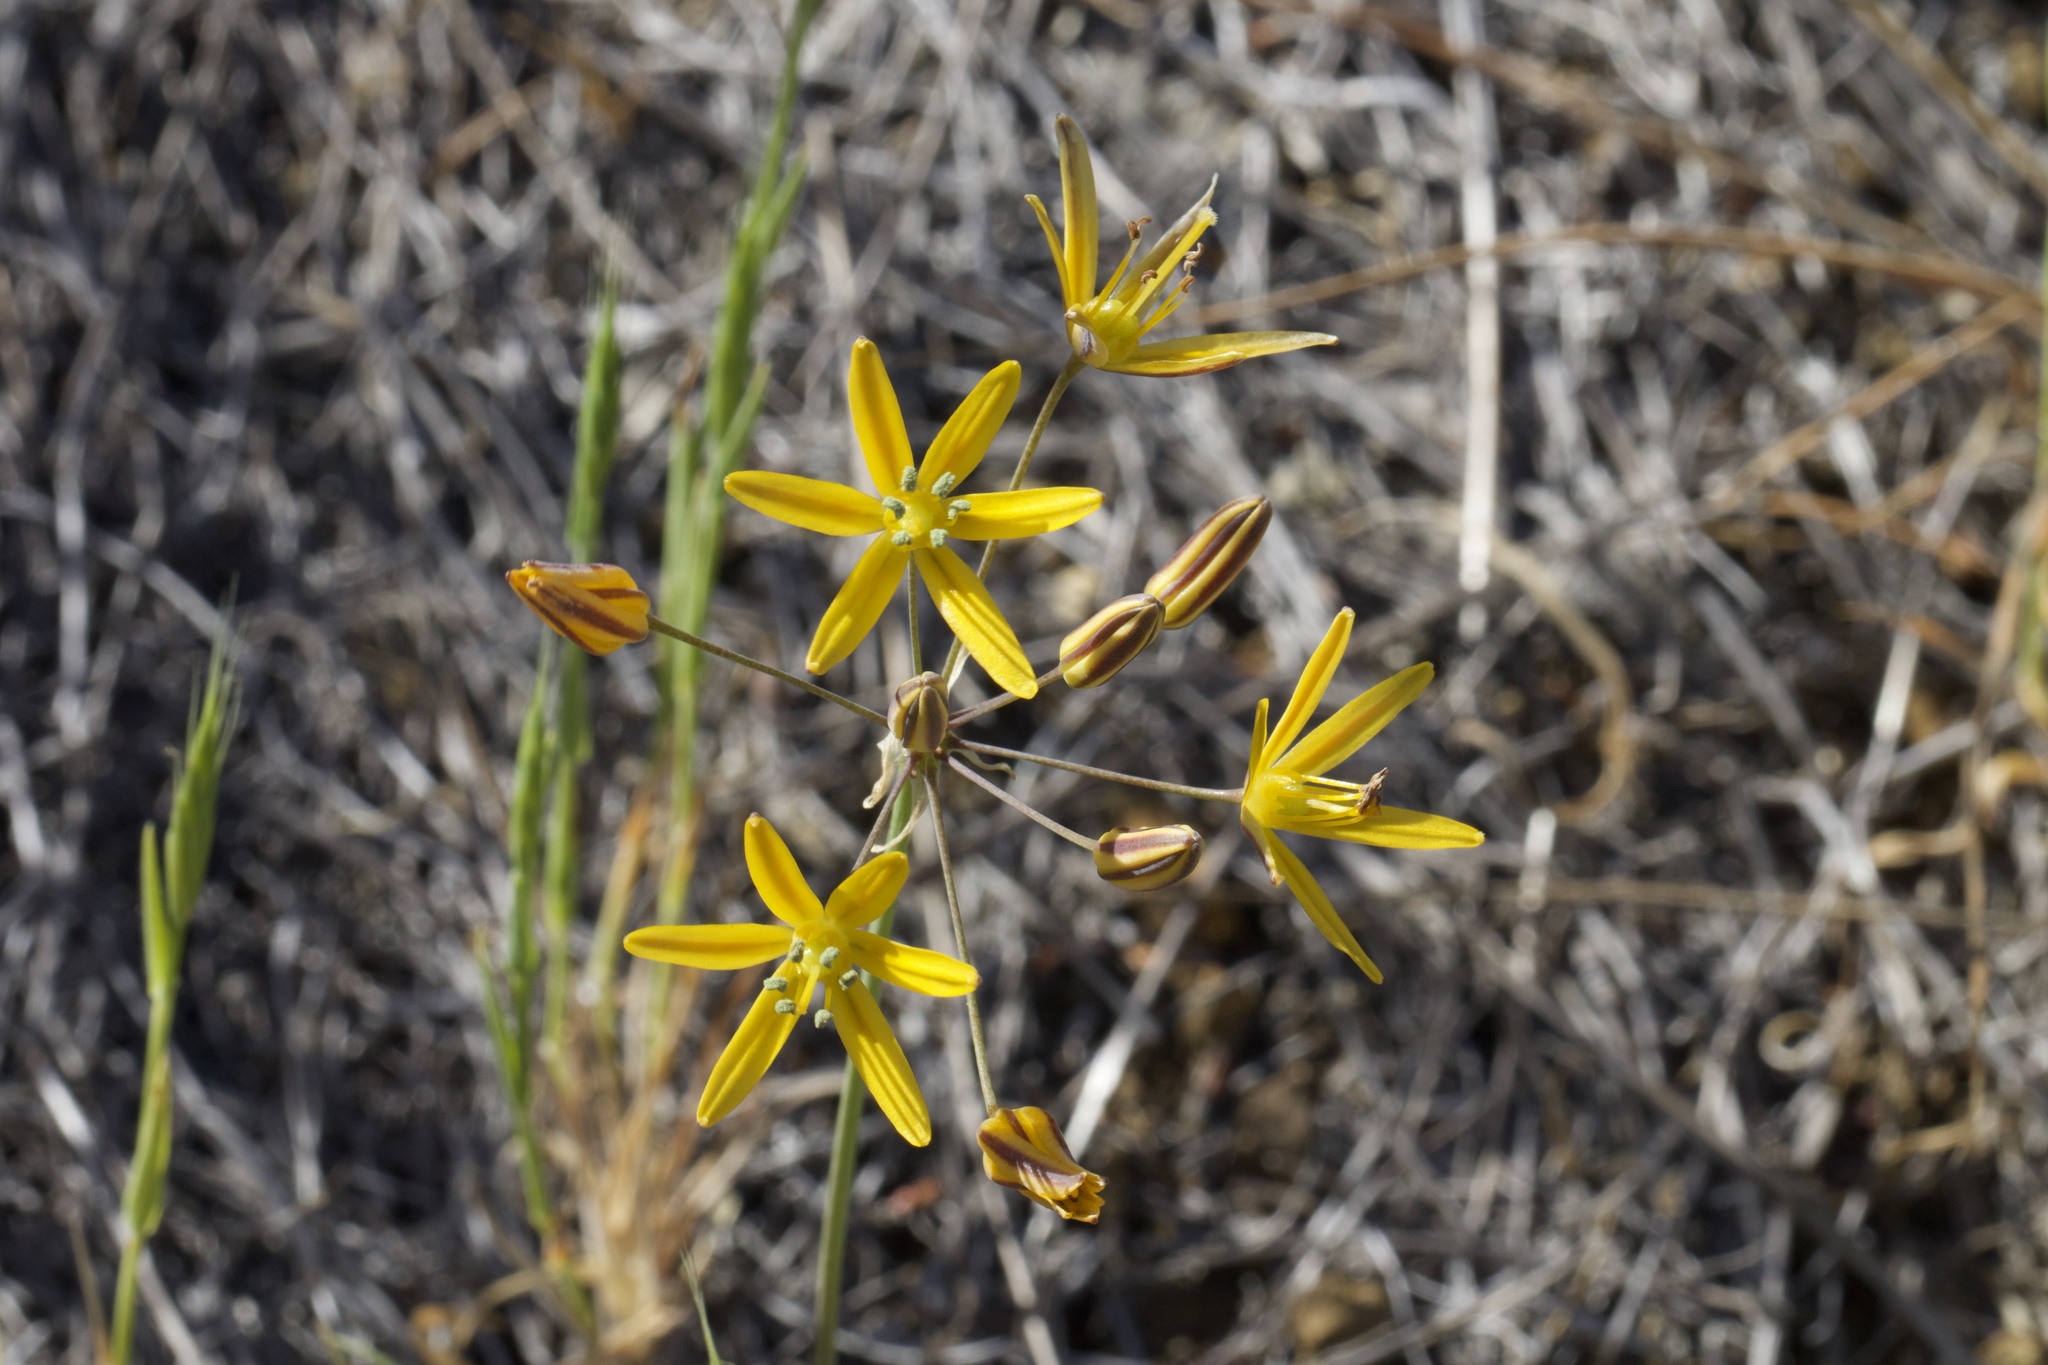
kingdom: Plantae
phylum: Tracheophyta
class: Liliopsida
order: Asparagales
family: Asparagaceae
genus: Bloomeria
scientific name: Bloomeria crocea
